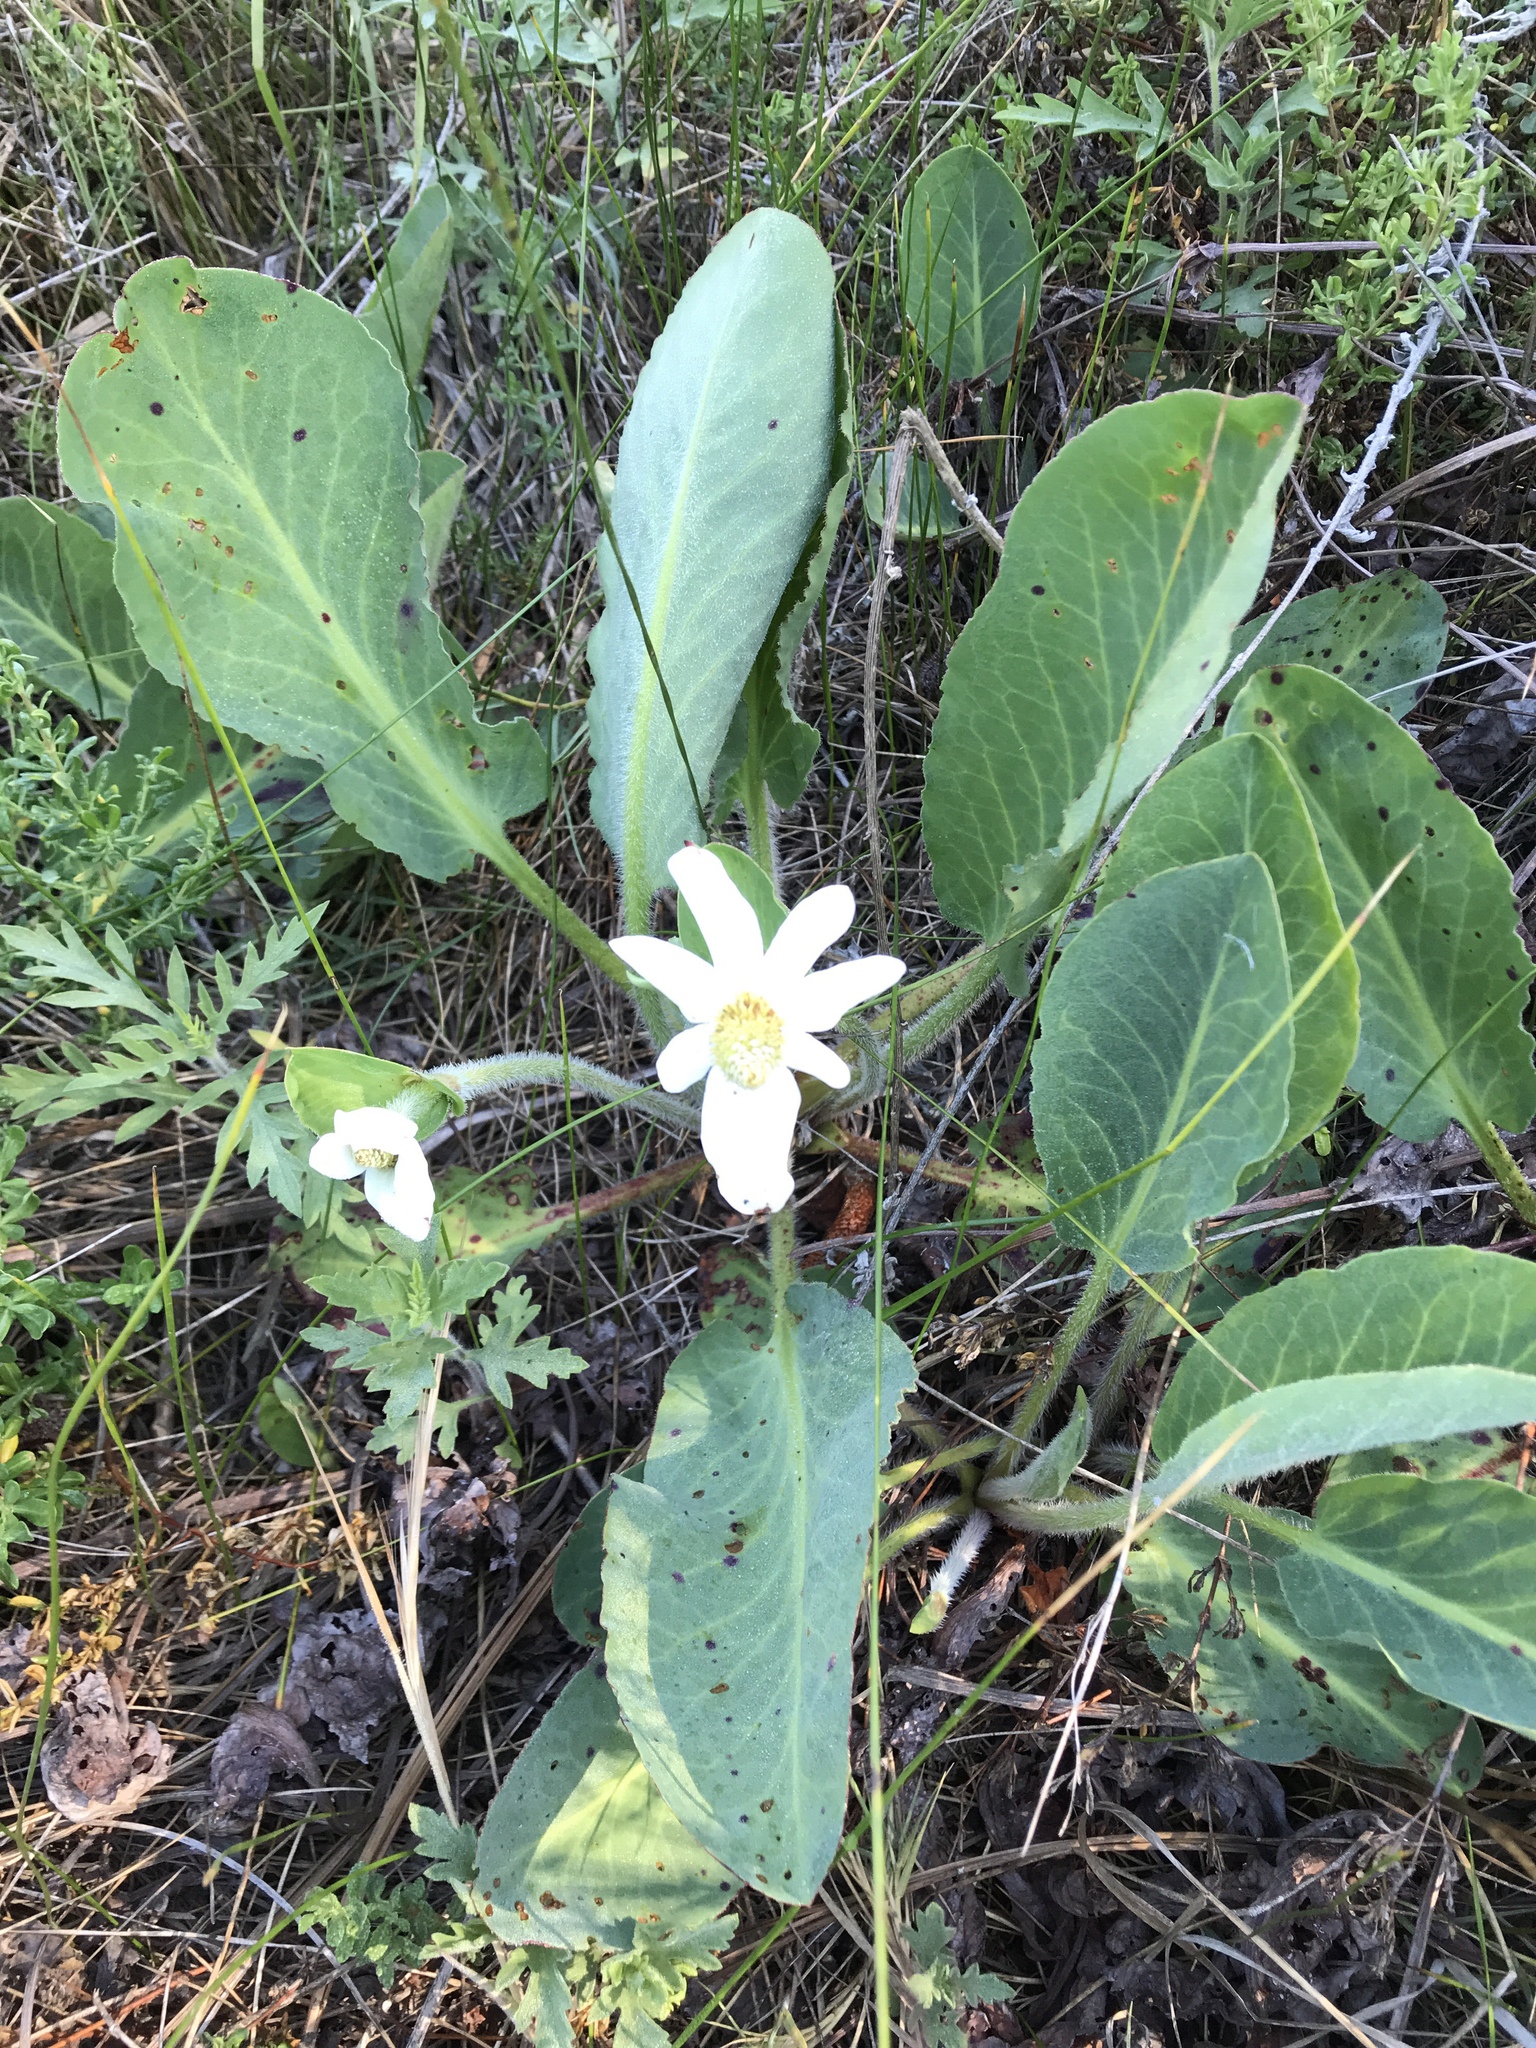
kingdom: Plantae
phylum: Tracheophyta
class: Magnoliopsida
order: Piperales
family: Saururaceae
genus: Anemopsis
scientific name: Anemopsis californica
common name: Apache-beads
